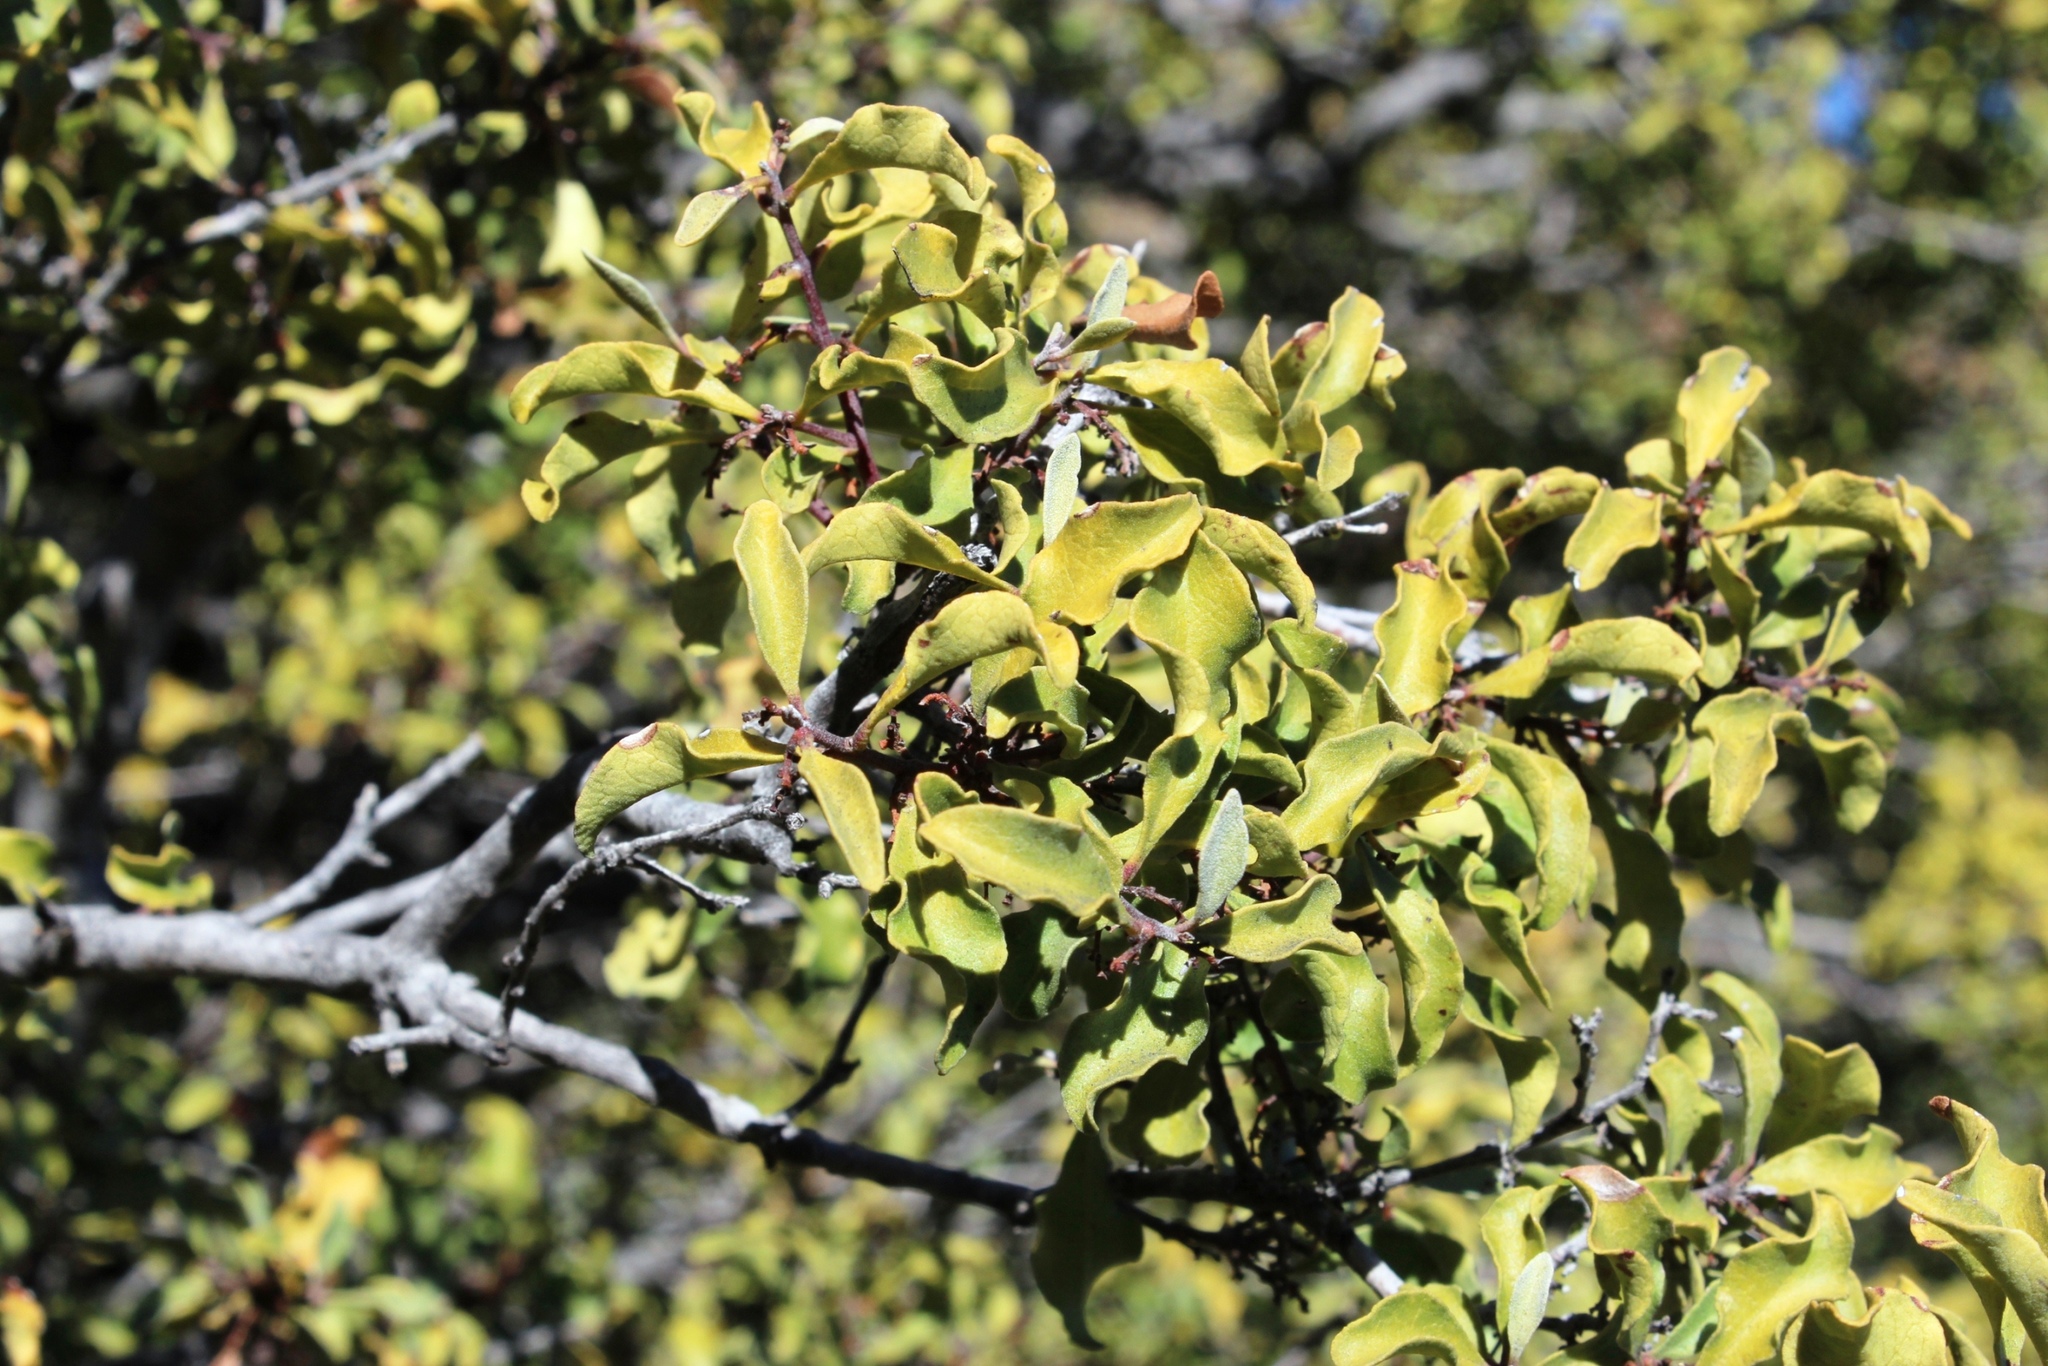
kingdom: Plantae
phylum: Tracheophyta
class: Magnoliopsida
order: Ericales
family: Ebenaceae
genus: Euclea
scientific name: Euclea undulata
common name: Small-leaved guarri
